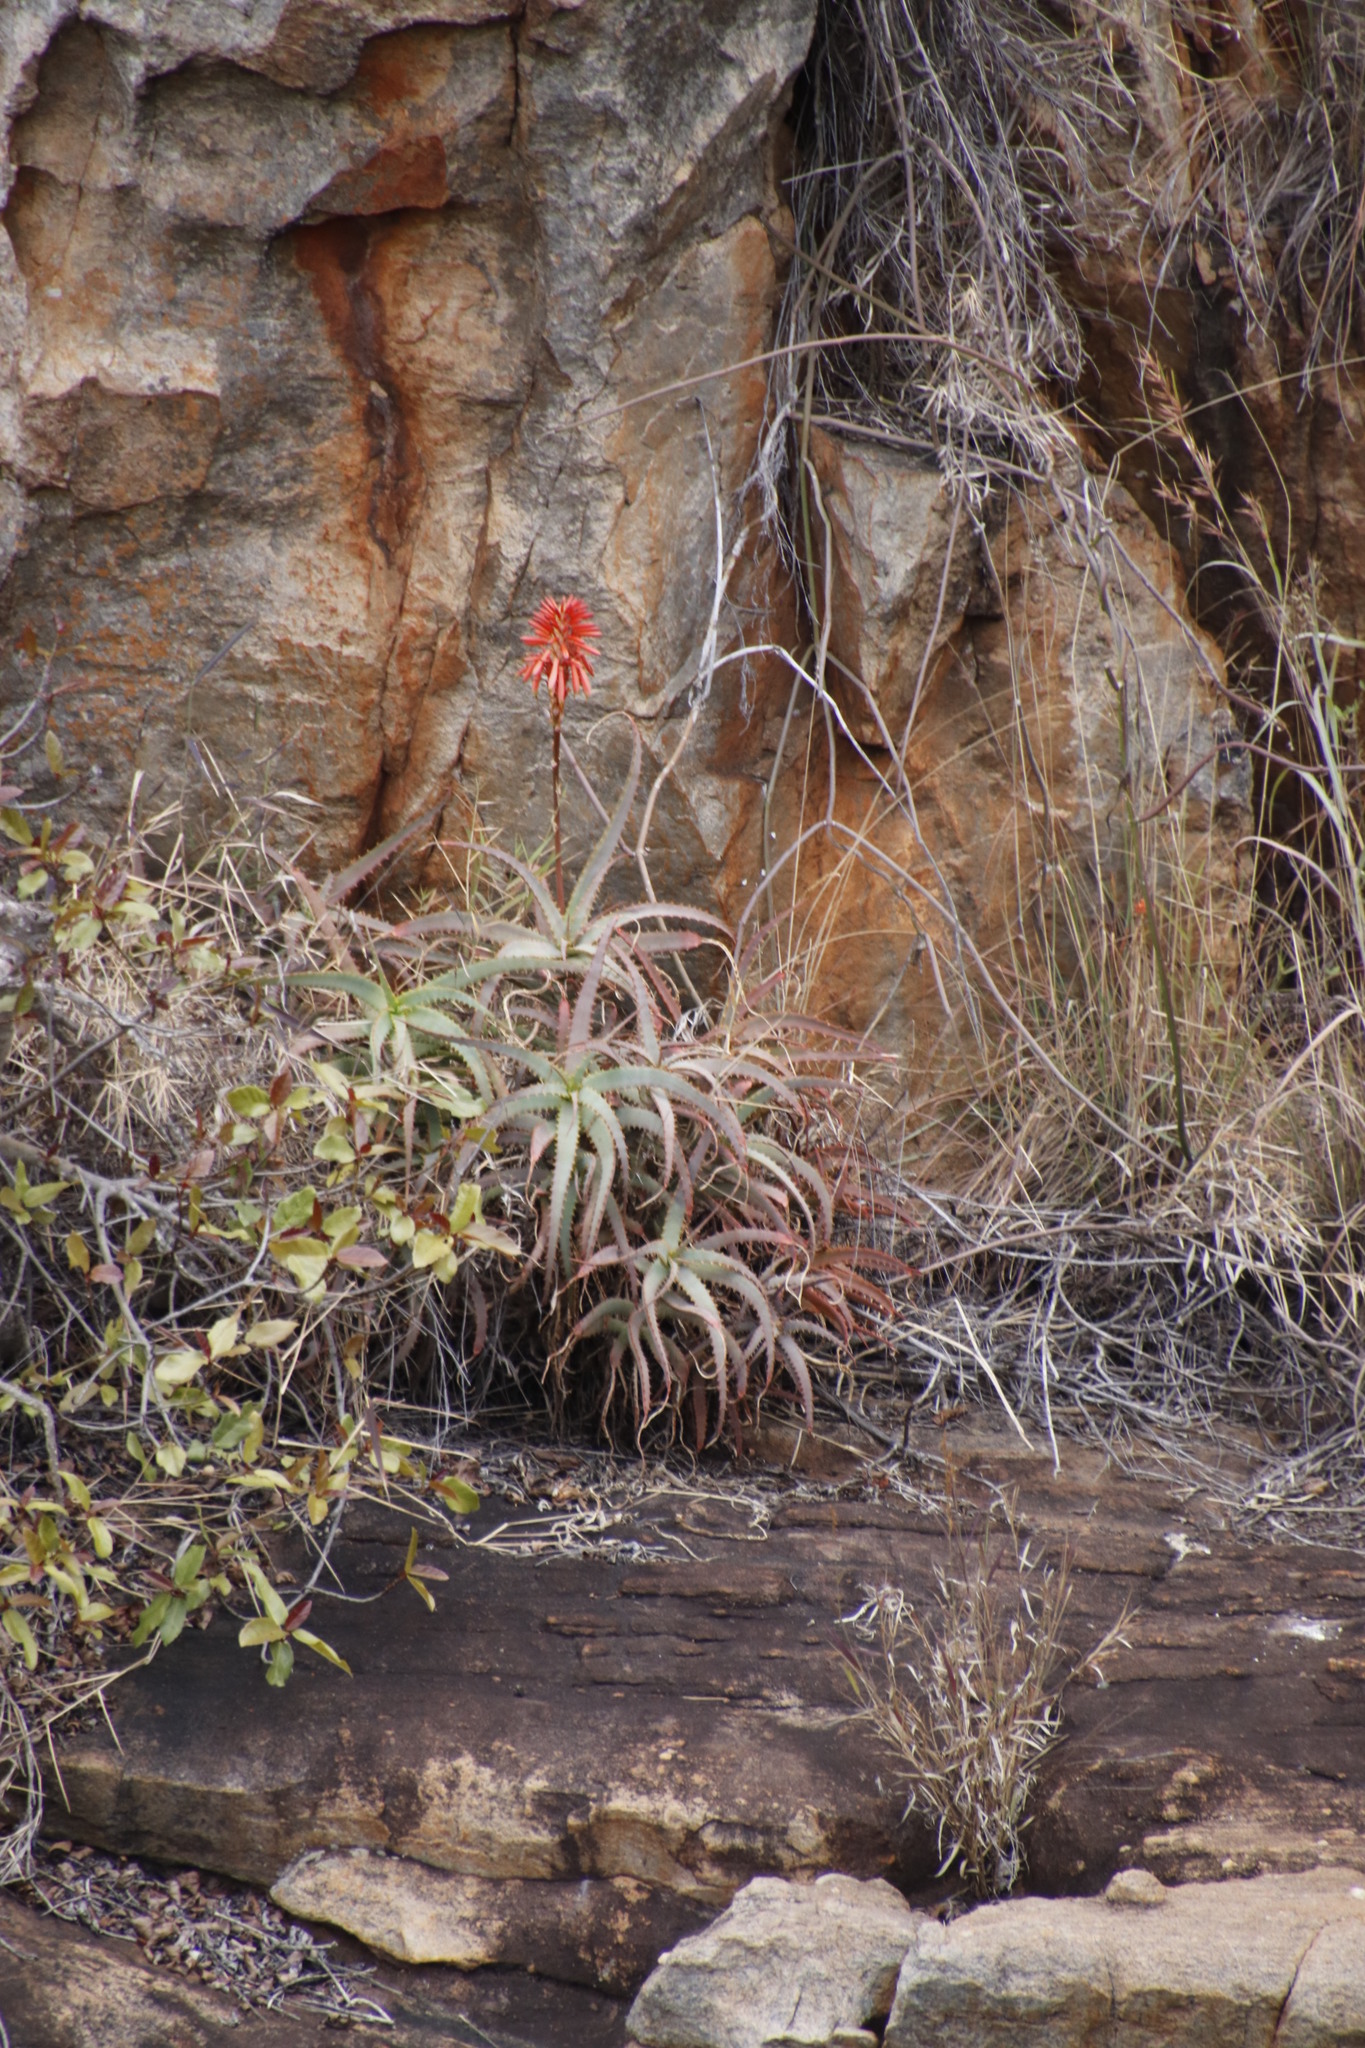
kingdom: Plantae
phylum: Tracheophyta
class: Liliopsida
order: Asparagales
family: Asphodelaceae
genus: Aloe
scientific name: Aloe arborescens
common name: Candelabra aloe
